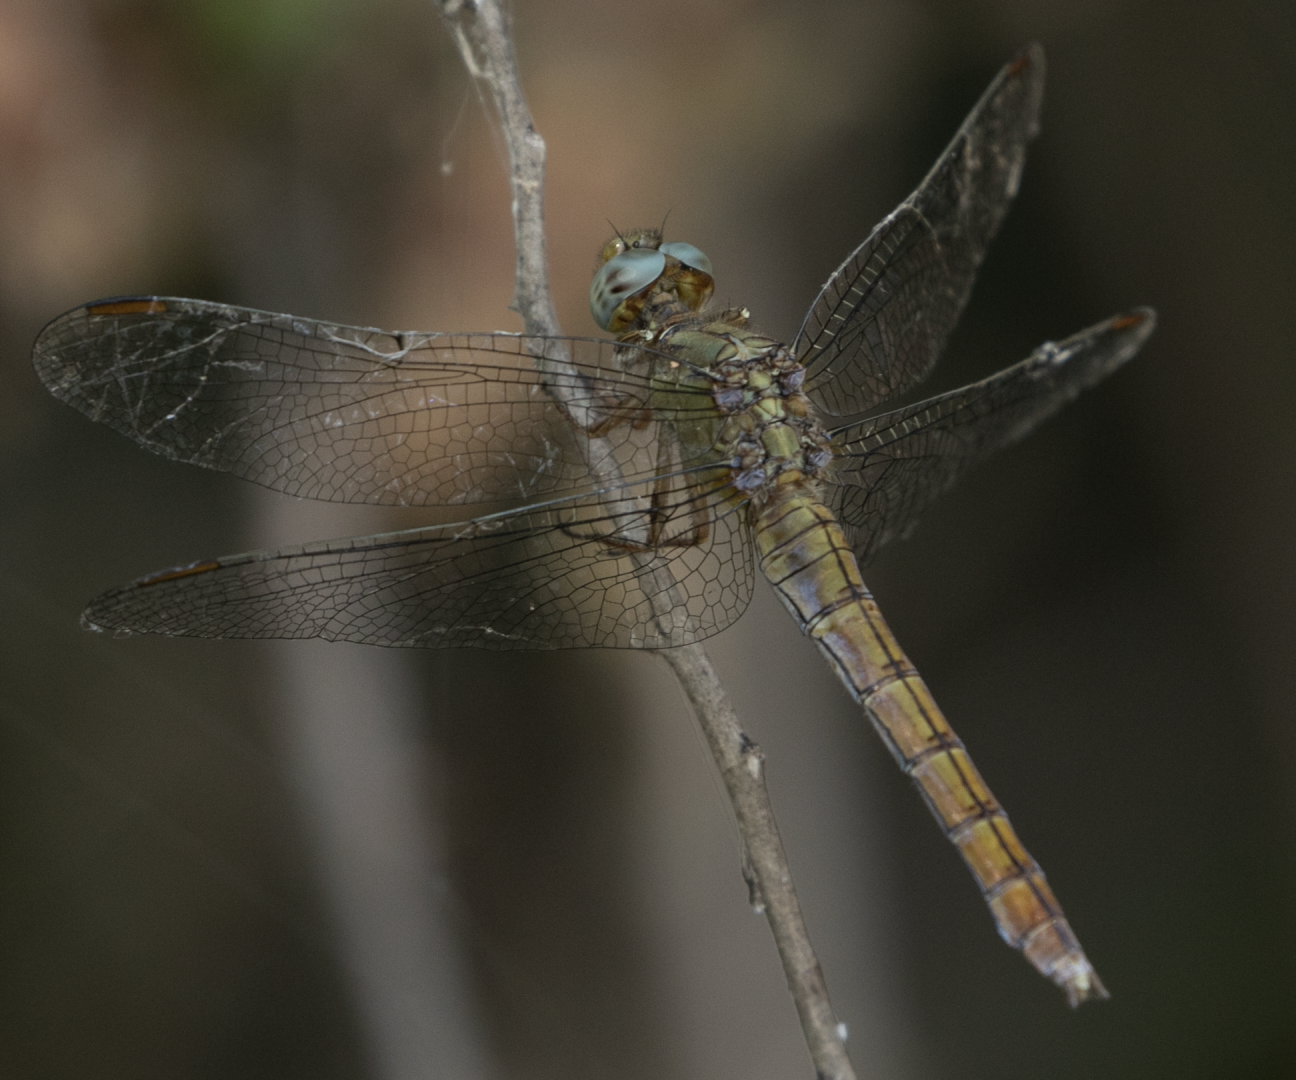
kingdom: Animalia
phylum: Arthropoda
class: Insecta
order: Odonata
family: Libellulidae
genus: Orthetrum
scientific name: Orthetrum coerulescens
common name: Keeled skimmer
